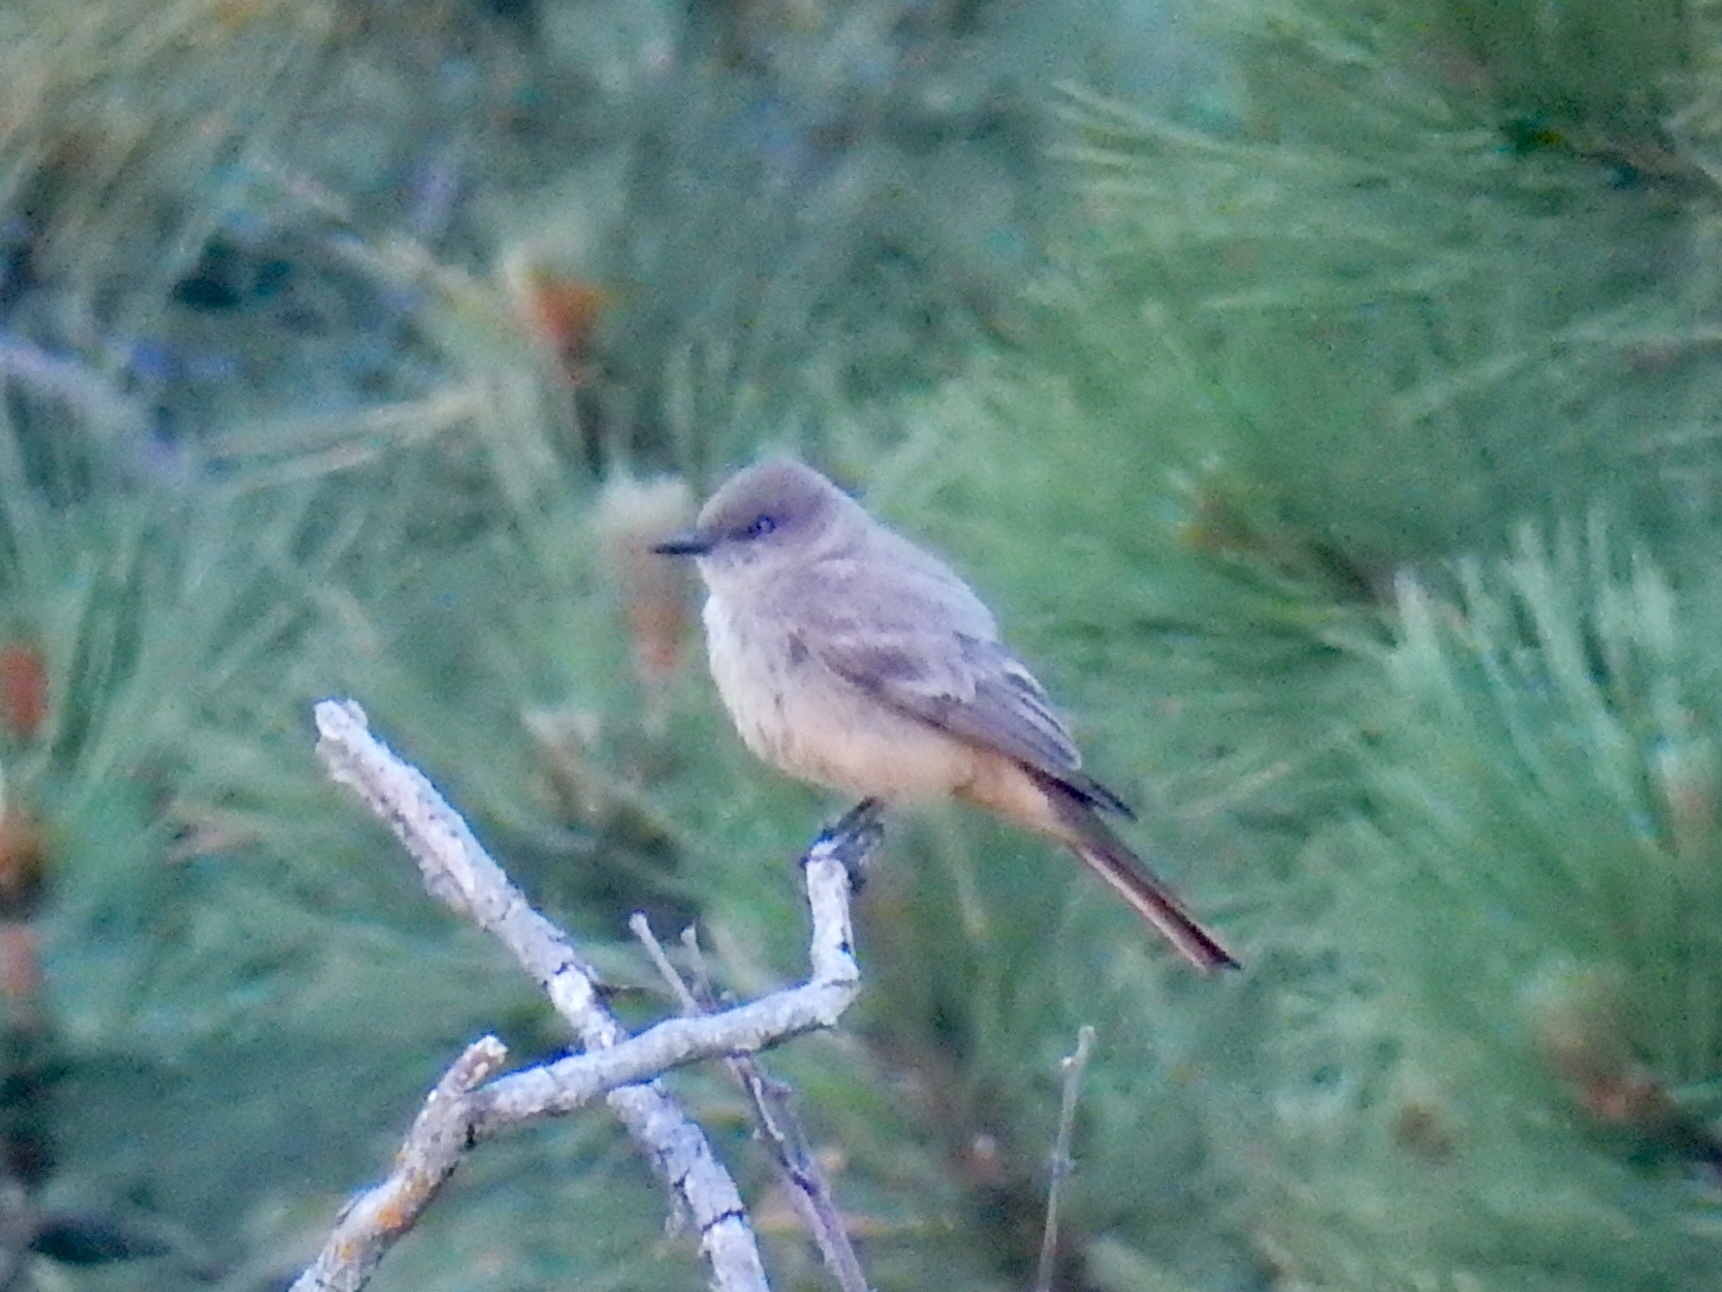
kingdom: Animalia
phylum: Chordata
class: Aves
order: Passeriformes
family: Tyrannidae
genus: Sayornis
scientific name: Sayornis saya
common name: Say's phoebe
